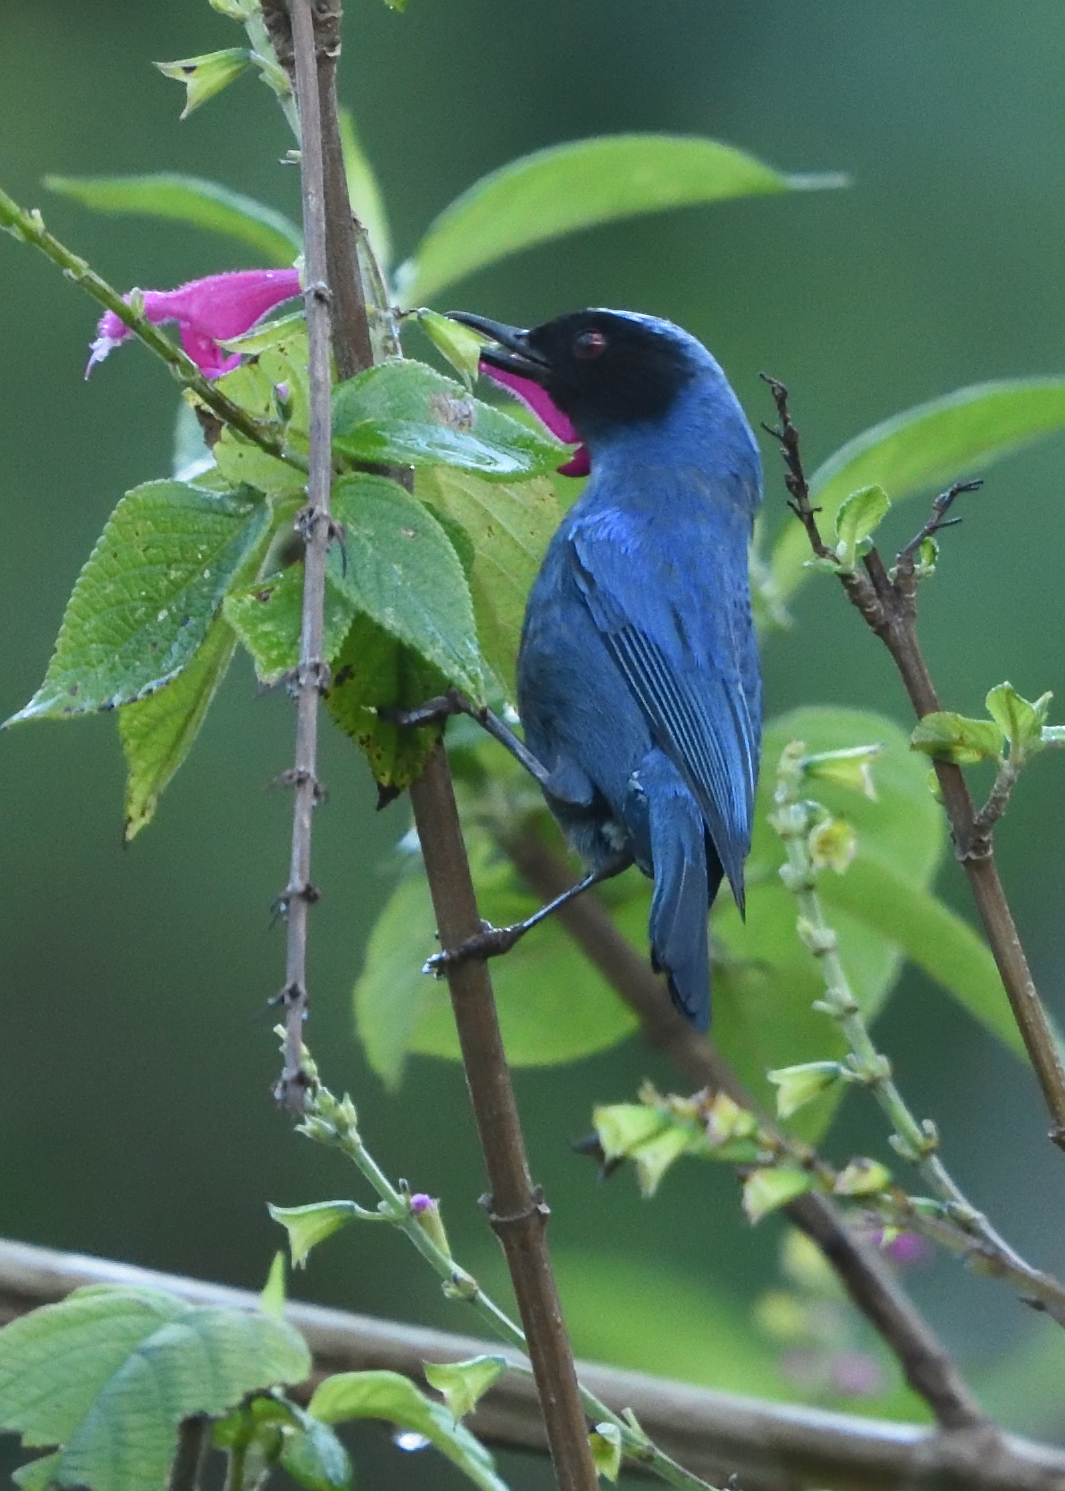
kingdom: Animalia
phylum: Chordata
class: Aves
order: Passeriformes
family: Thraupidae
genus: Diglossa
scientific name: Diglossa cyanea
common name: Masked flowerpiercer
